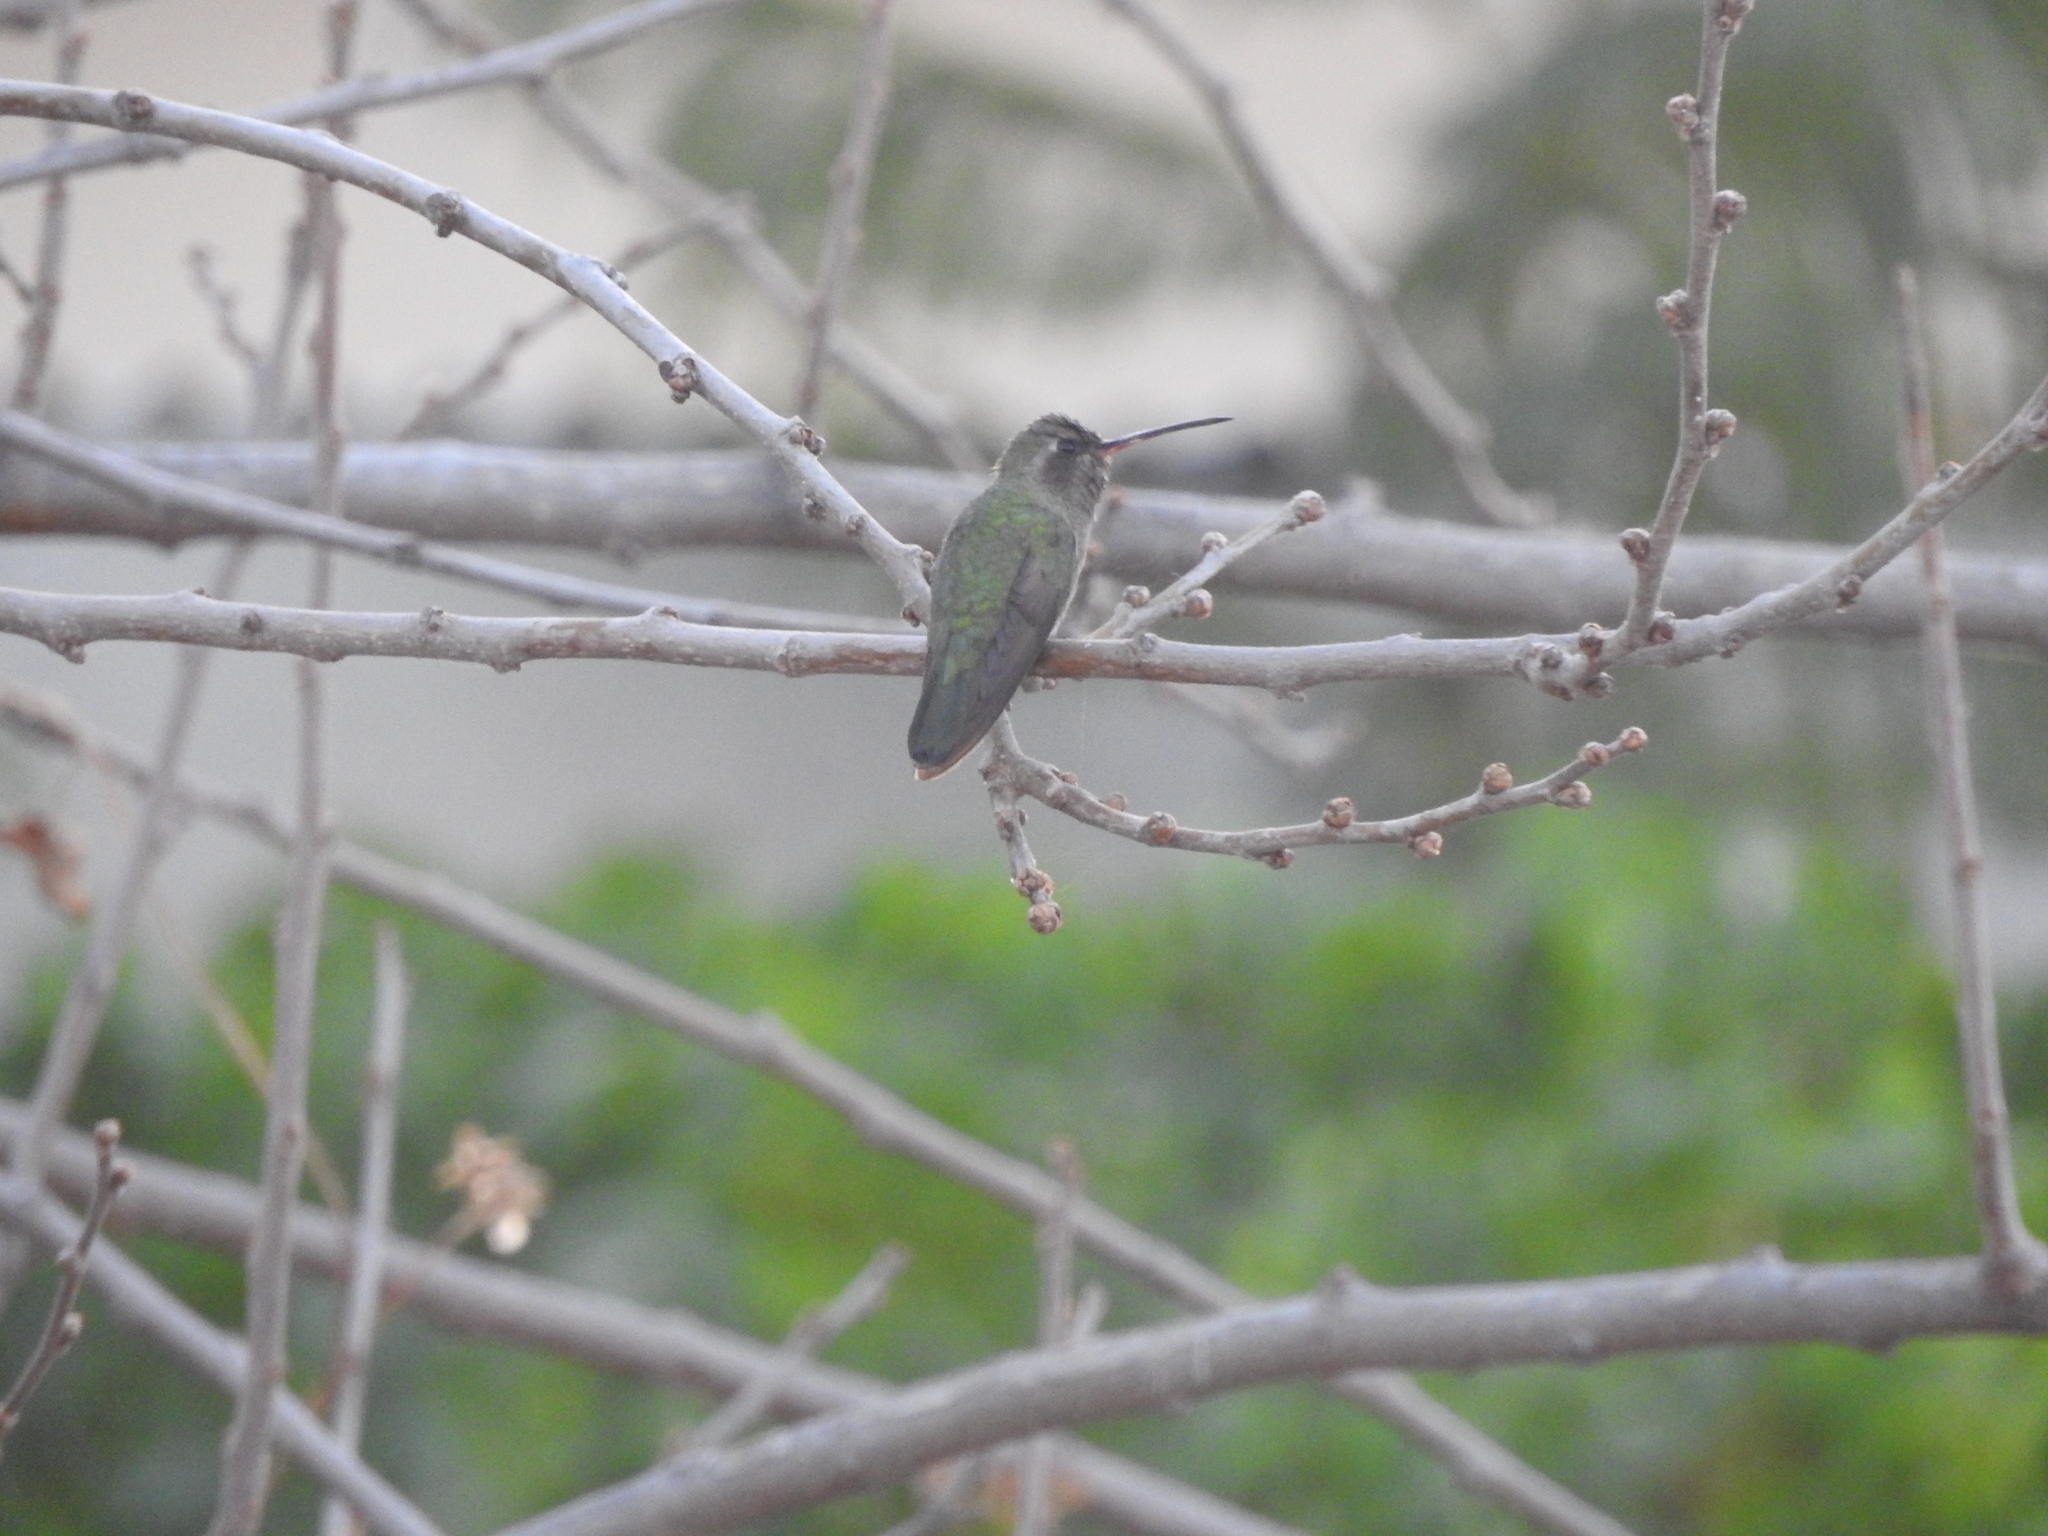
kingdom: Animalia
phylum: Chordata
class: Aves
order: Apodiformes
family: Trochilidae
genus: Cynanthus
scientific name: Cynanthus latirostris
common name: Broad-billed hummingbird
